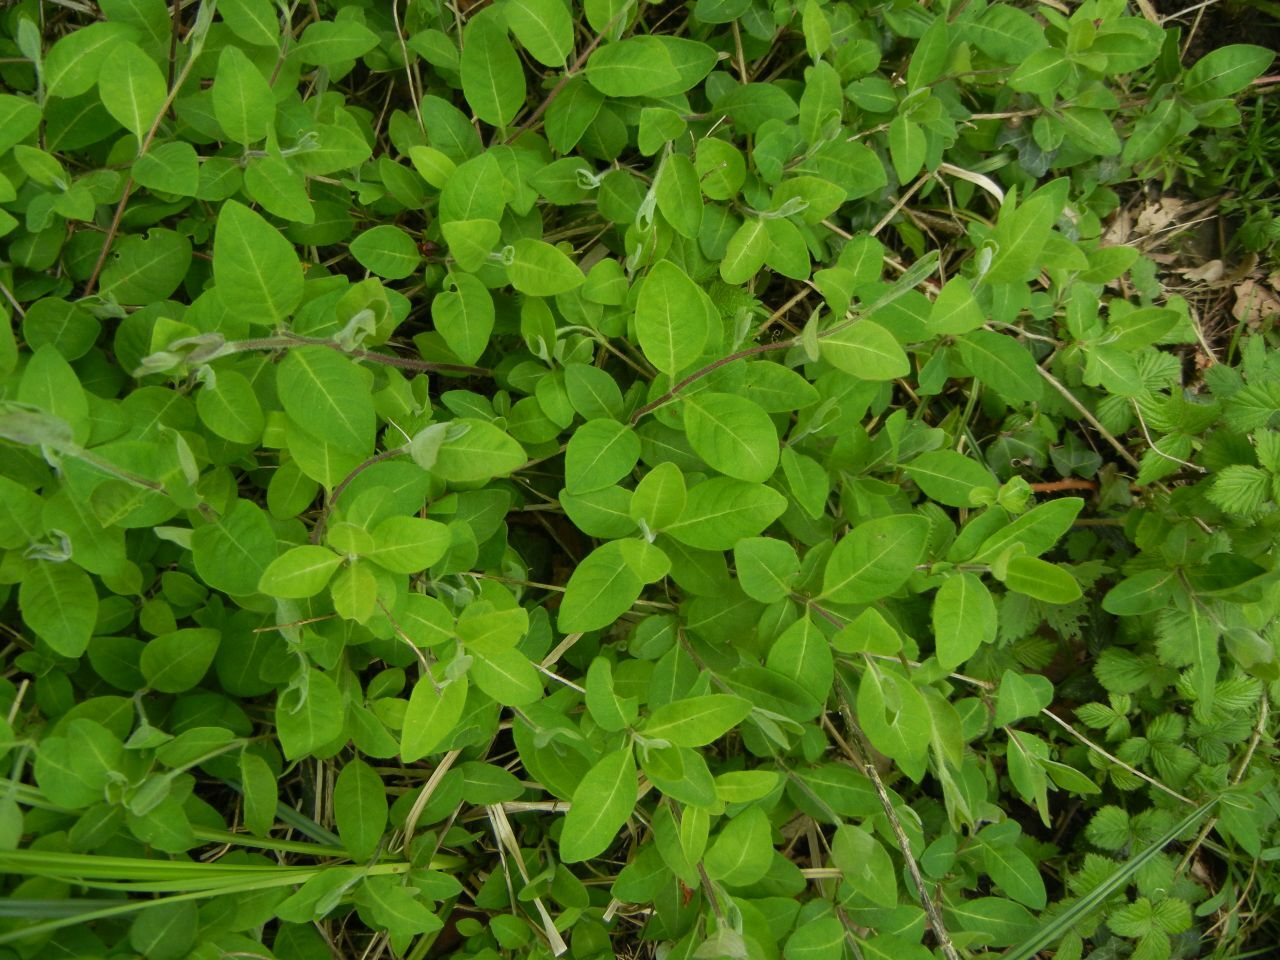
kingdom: Plantae
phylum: Tracheophyta
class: Magnoliopsida
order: Dipsacales
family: Caprifoliaceae
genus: Lonicera
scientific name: Lonicera periclymenum
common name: European honeysuckle
